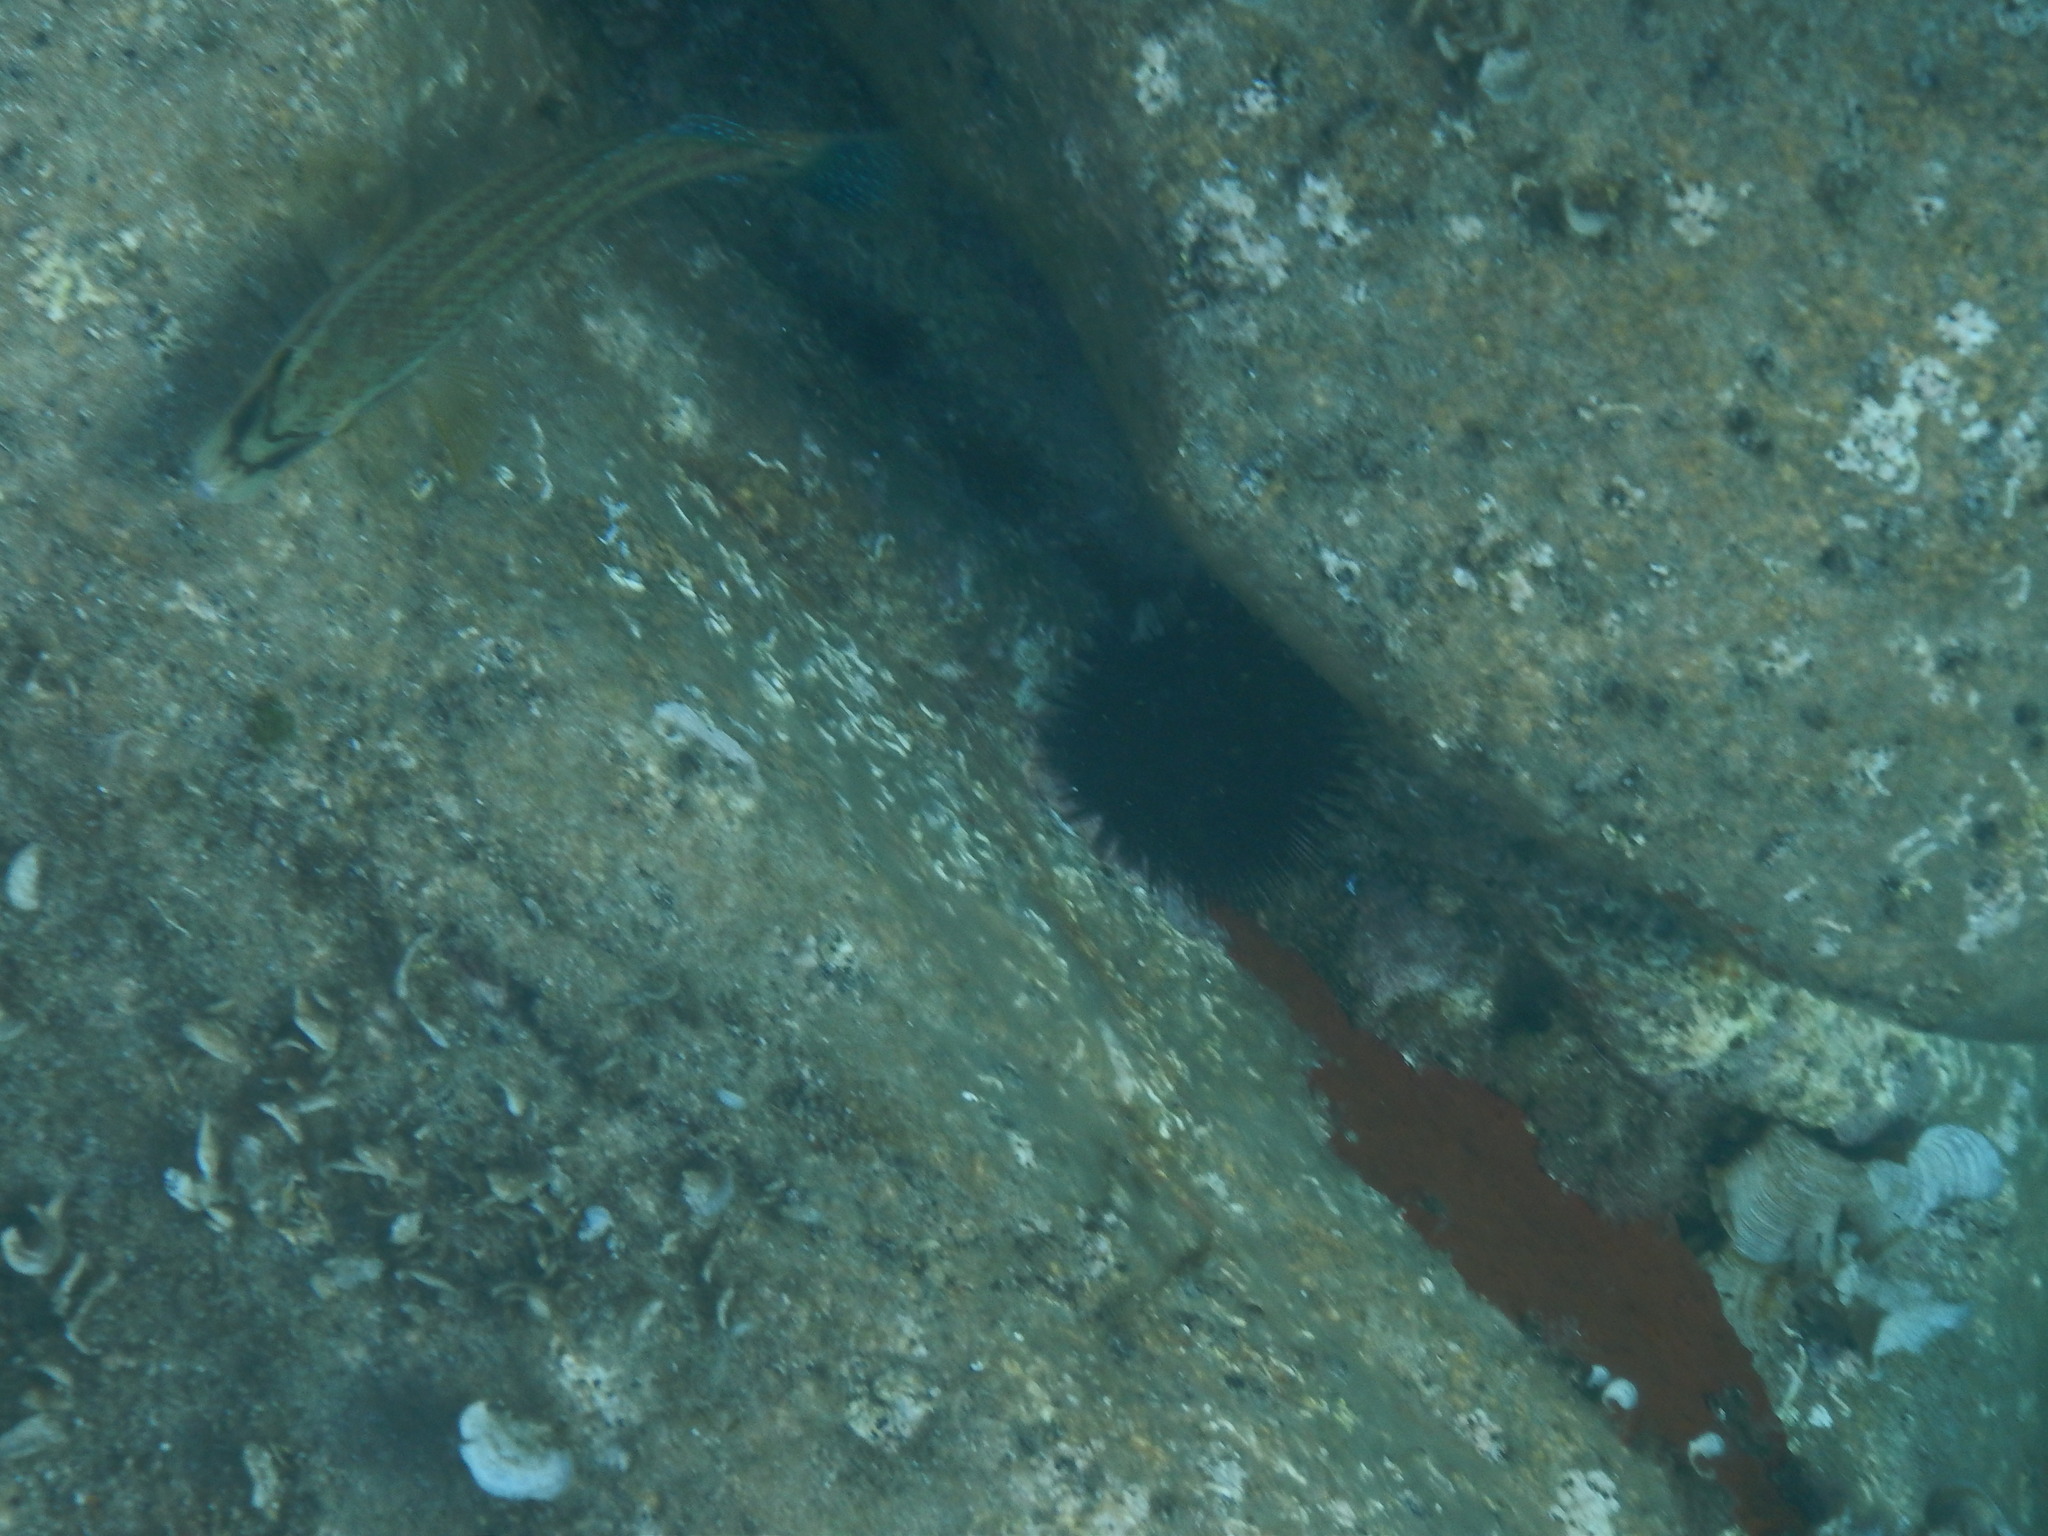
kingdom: Animalia
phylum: Chordata
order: Perciformes
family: Labridae
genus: Symphodus
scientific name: Symphodus tinca
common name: Peacock wrasse
